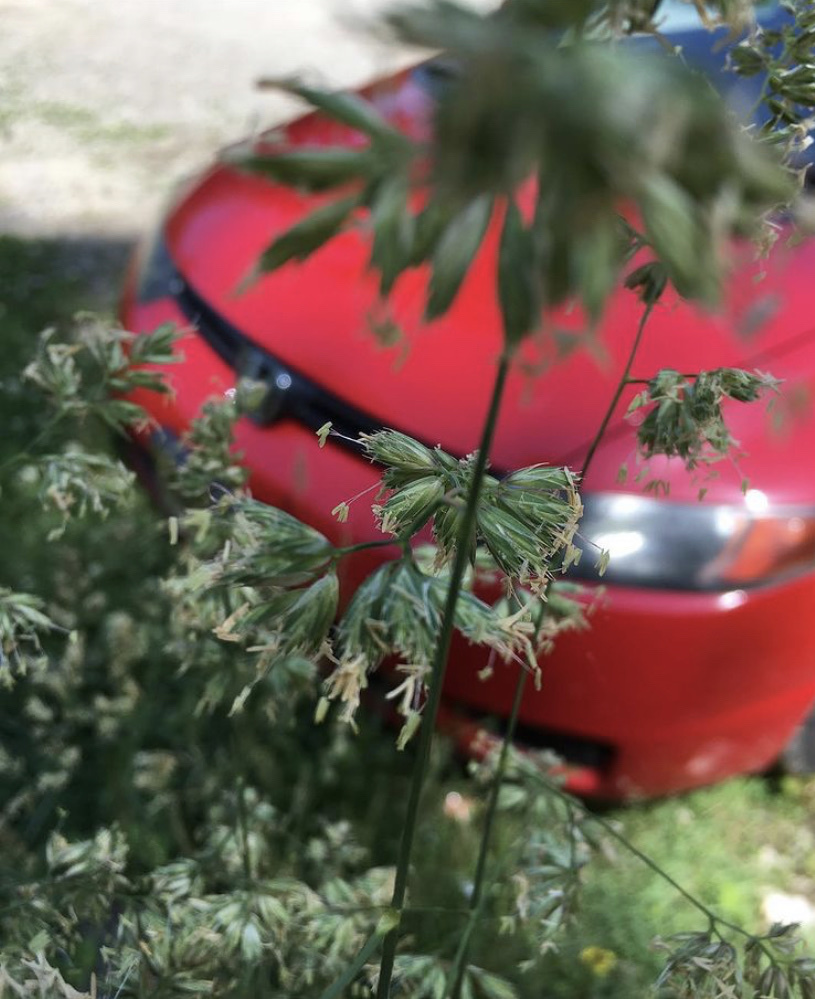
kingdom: Plantae
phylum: Tracheophyta
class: Liliopsida
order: Poales
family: Poaceae
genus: Dactylis
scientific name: Dactylis glomerata
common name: Orchardgrass
